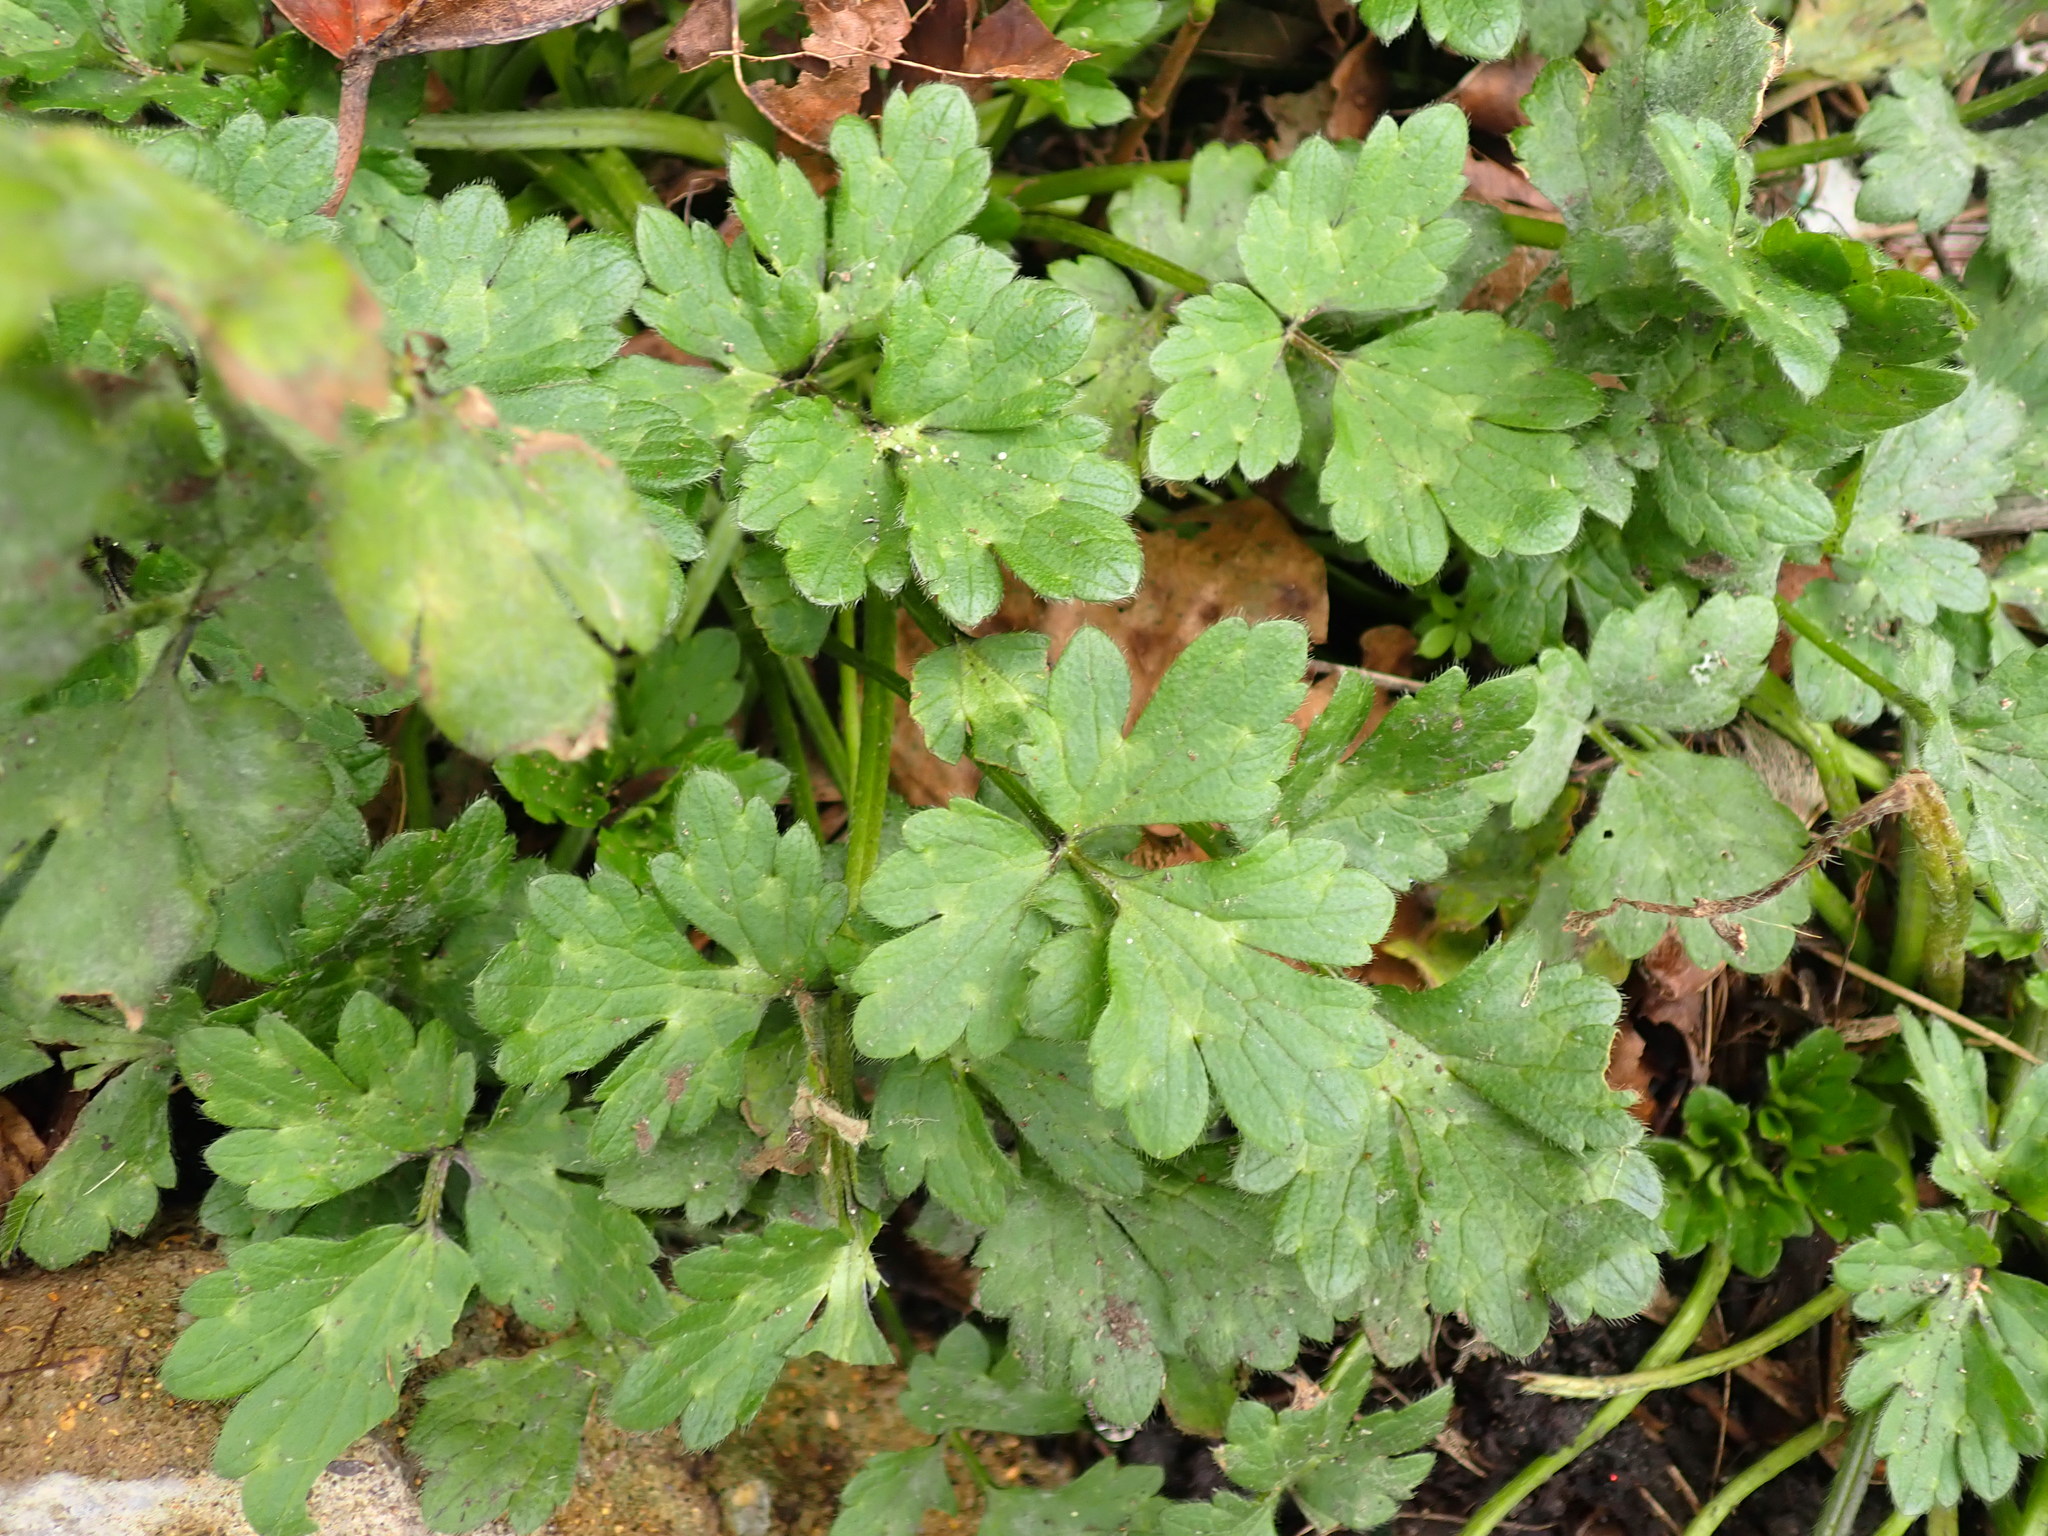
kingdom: Plantae
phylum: Tracheophyta
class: Magnoliopsida
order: Ranunculales
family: Ranunculaceae
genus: Ranunculus
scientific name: Ranunculus repens
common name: Creeping buttercup
